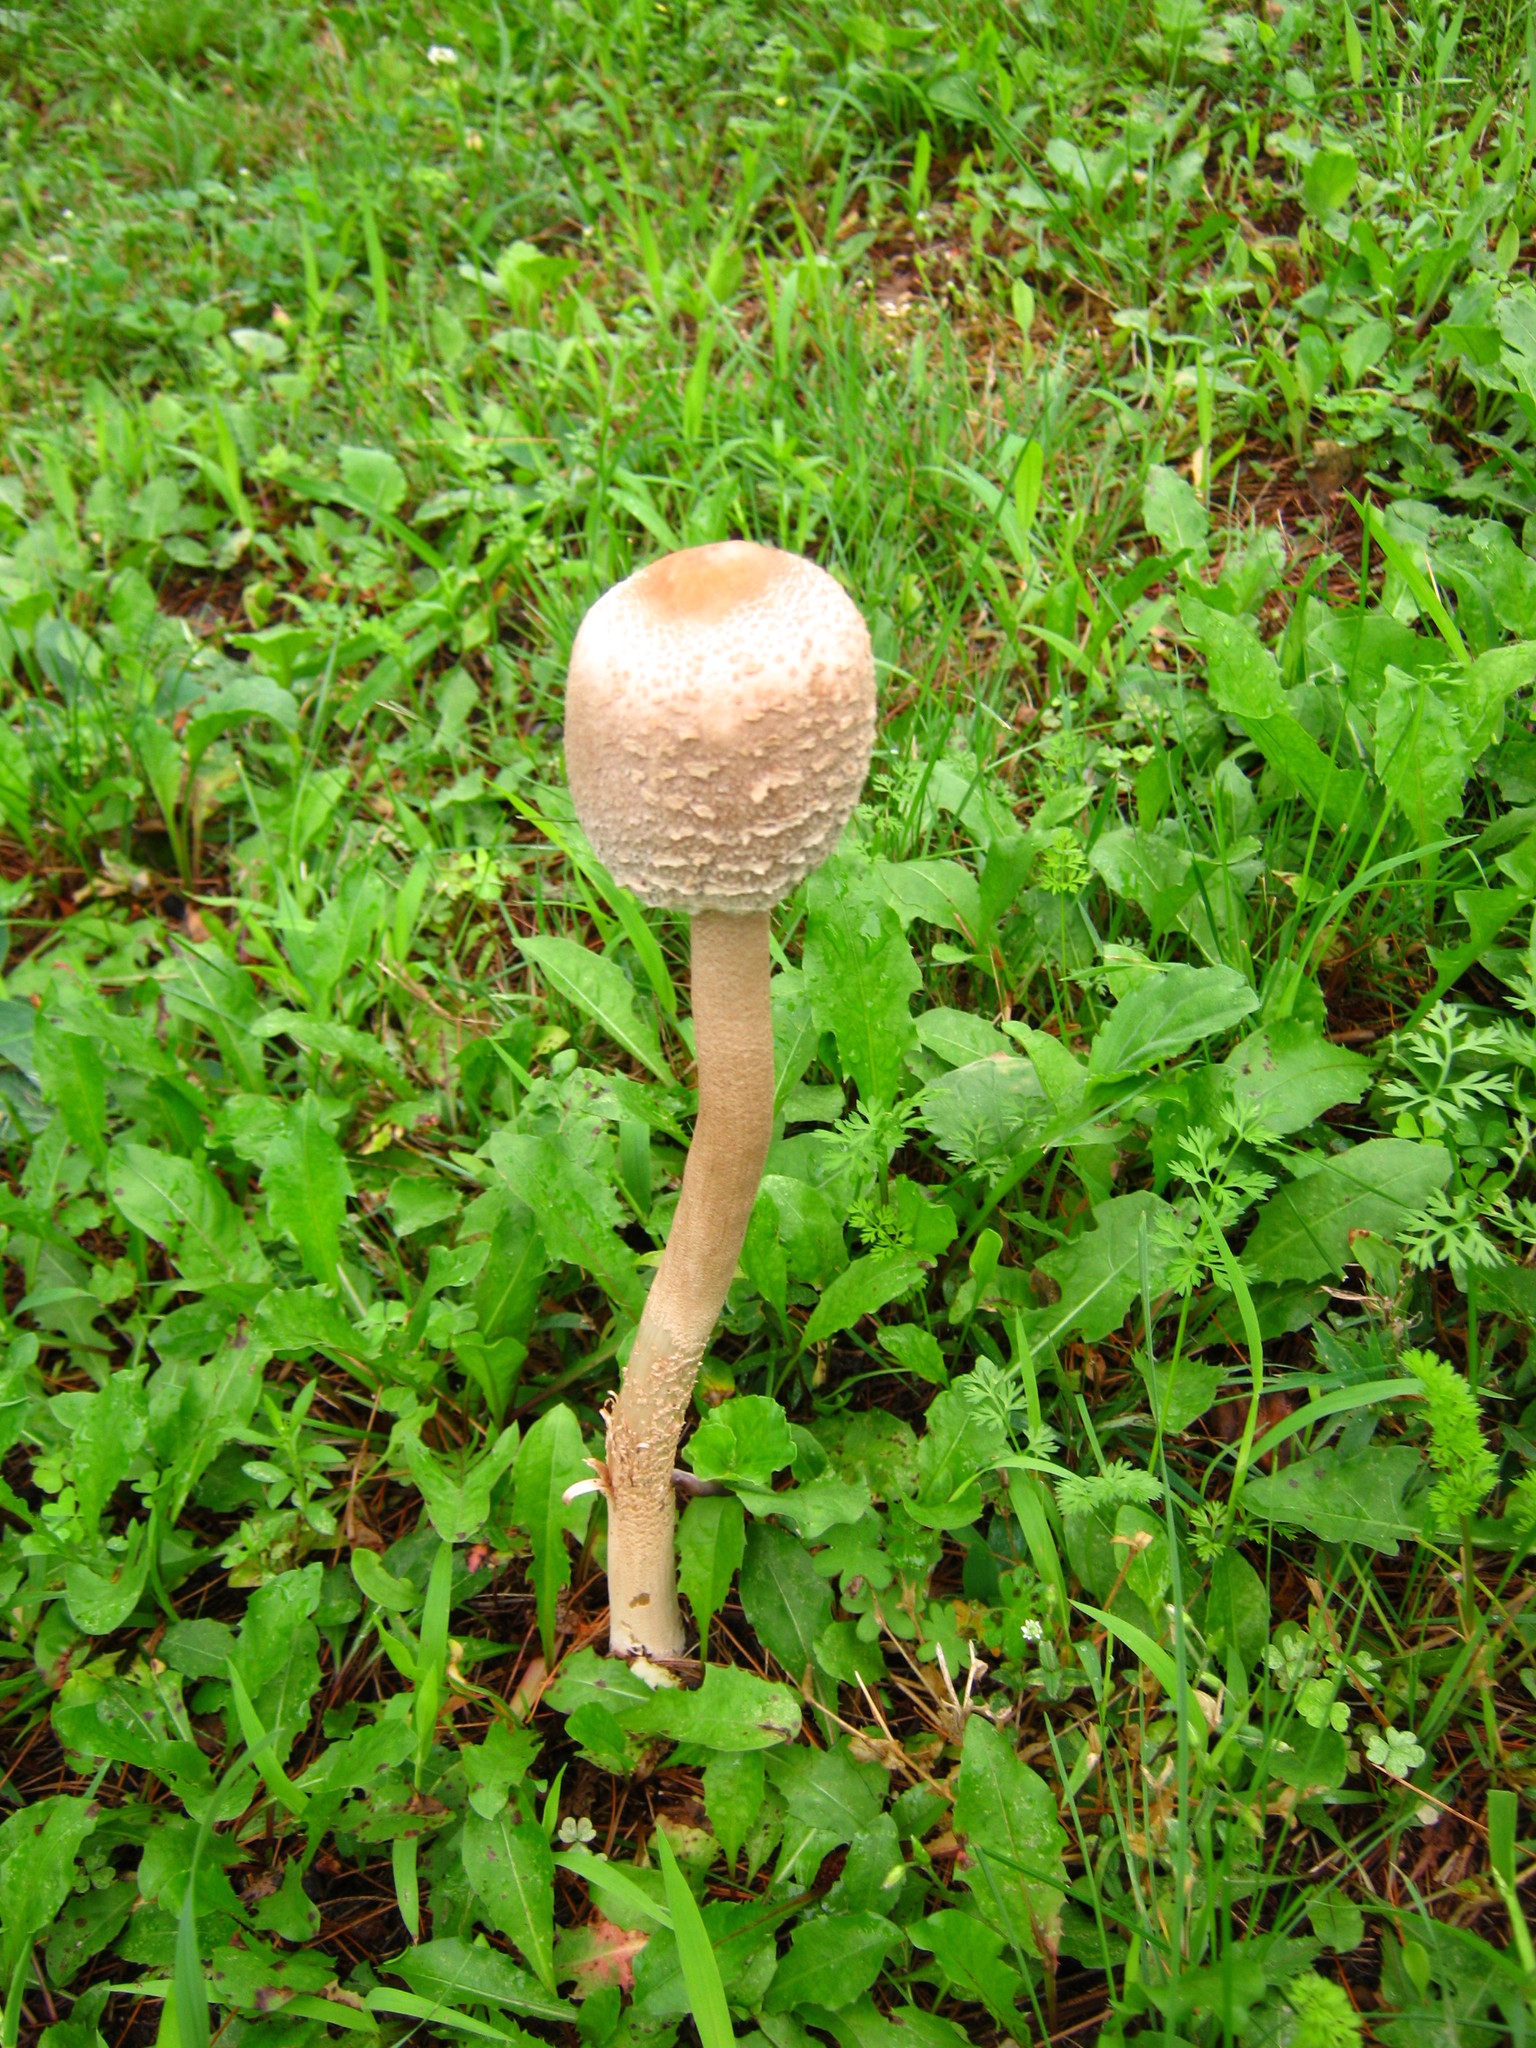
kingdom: Fungi
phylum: Basidiomycota
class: Agaricomycetes
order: Agaricales
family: Agaricaceae
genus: Macrolepiota
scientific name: Macrolepiota prominens
